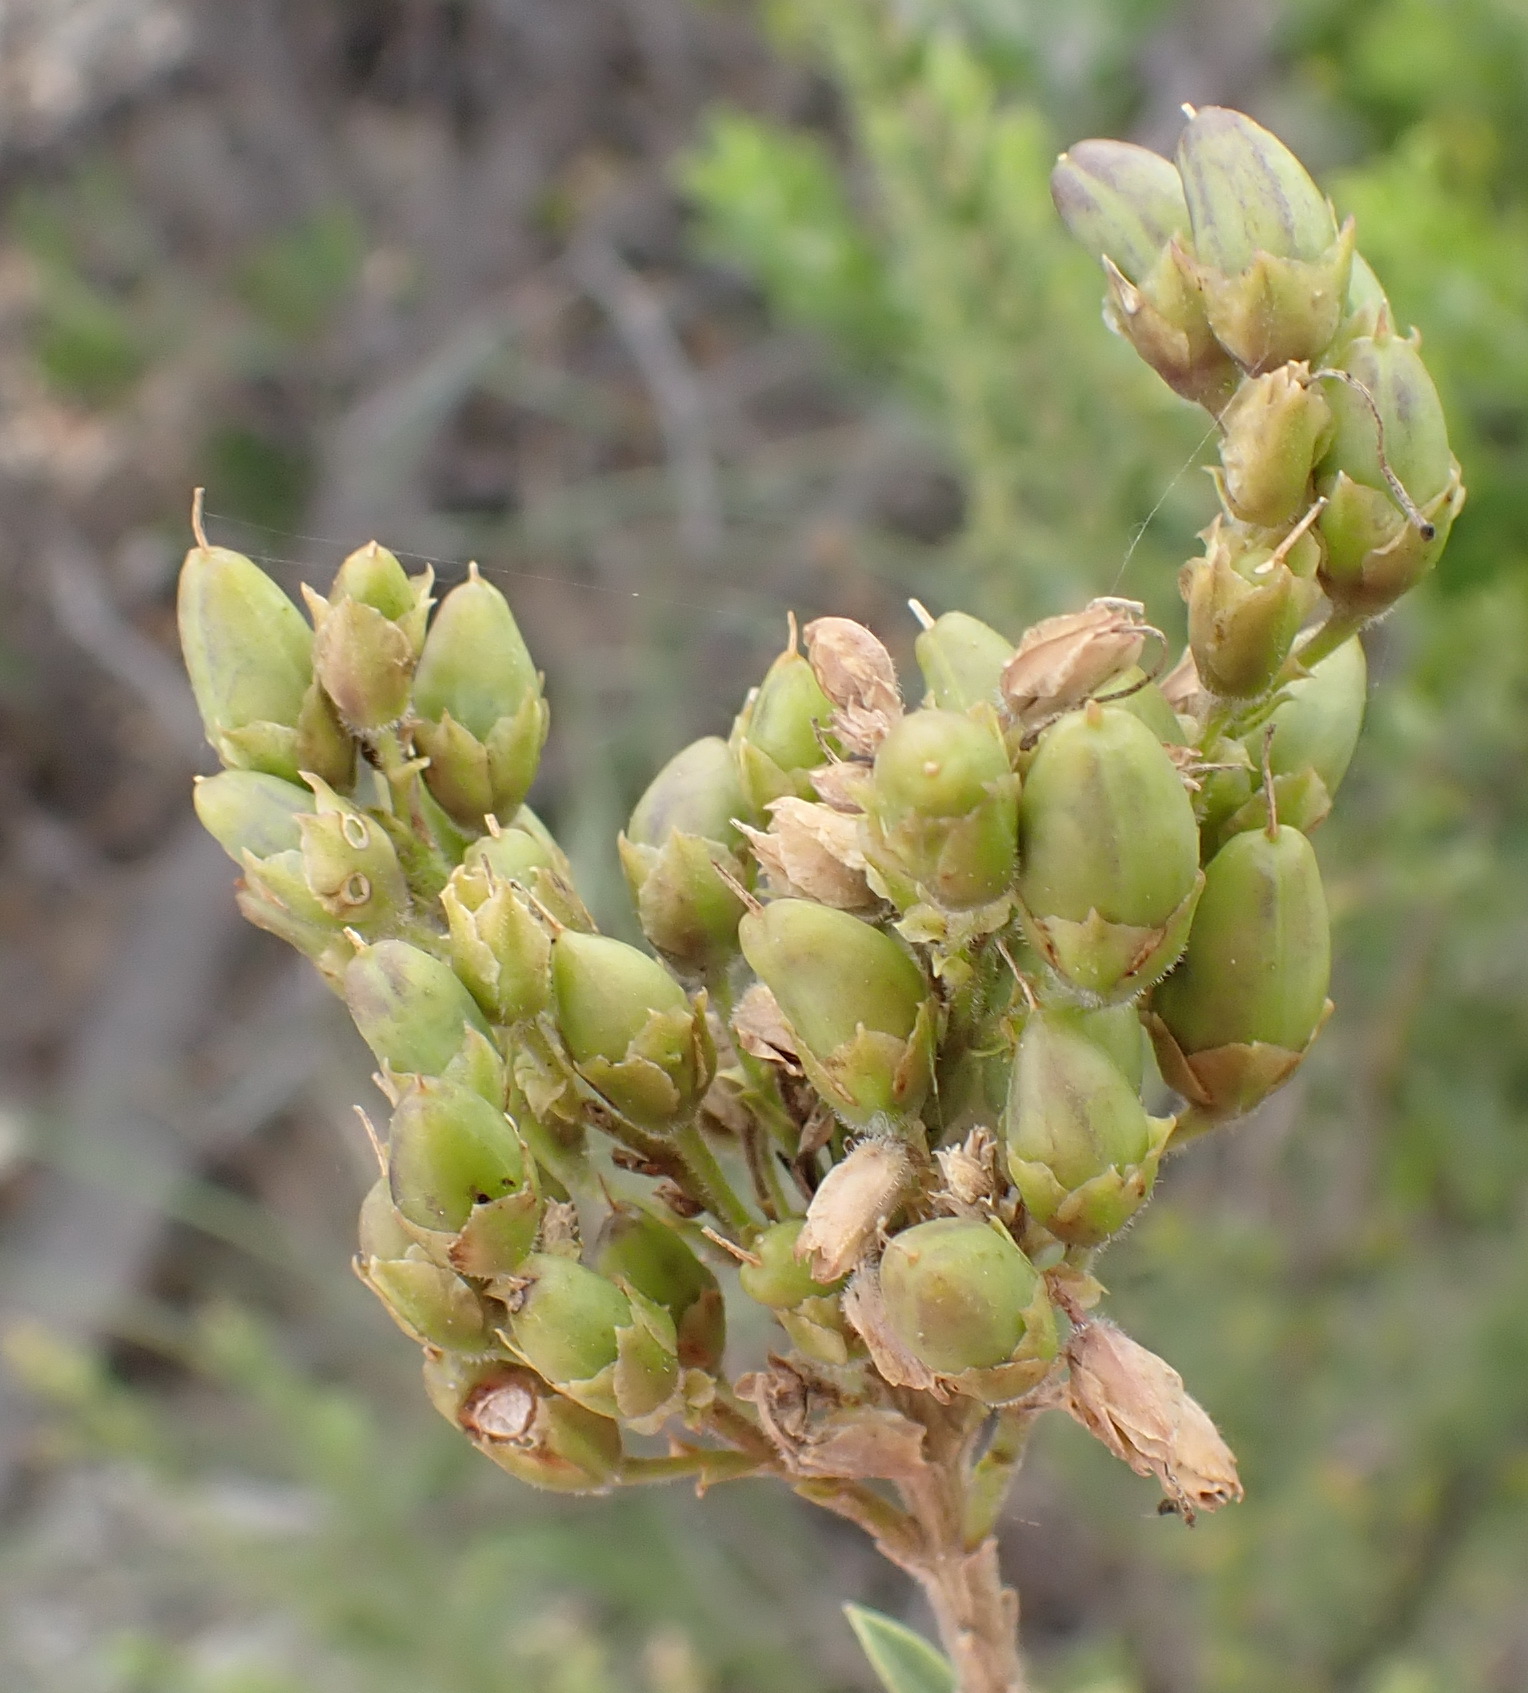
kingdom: Plantae
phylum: Tracheophyta
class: Magnoliopsida
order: Lamiales
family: Scrophulariaceae
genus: Freylinia
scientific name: Freylinia densiflora
